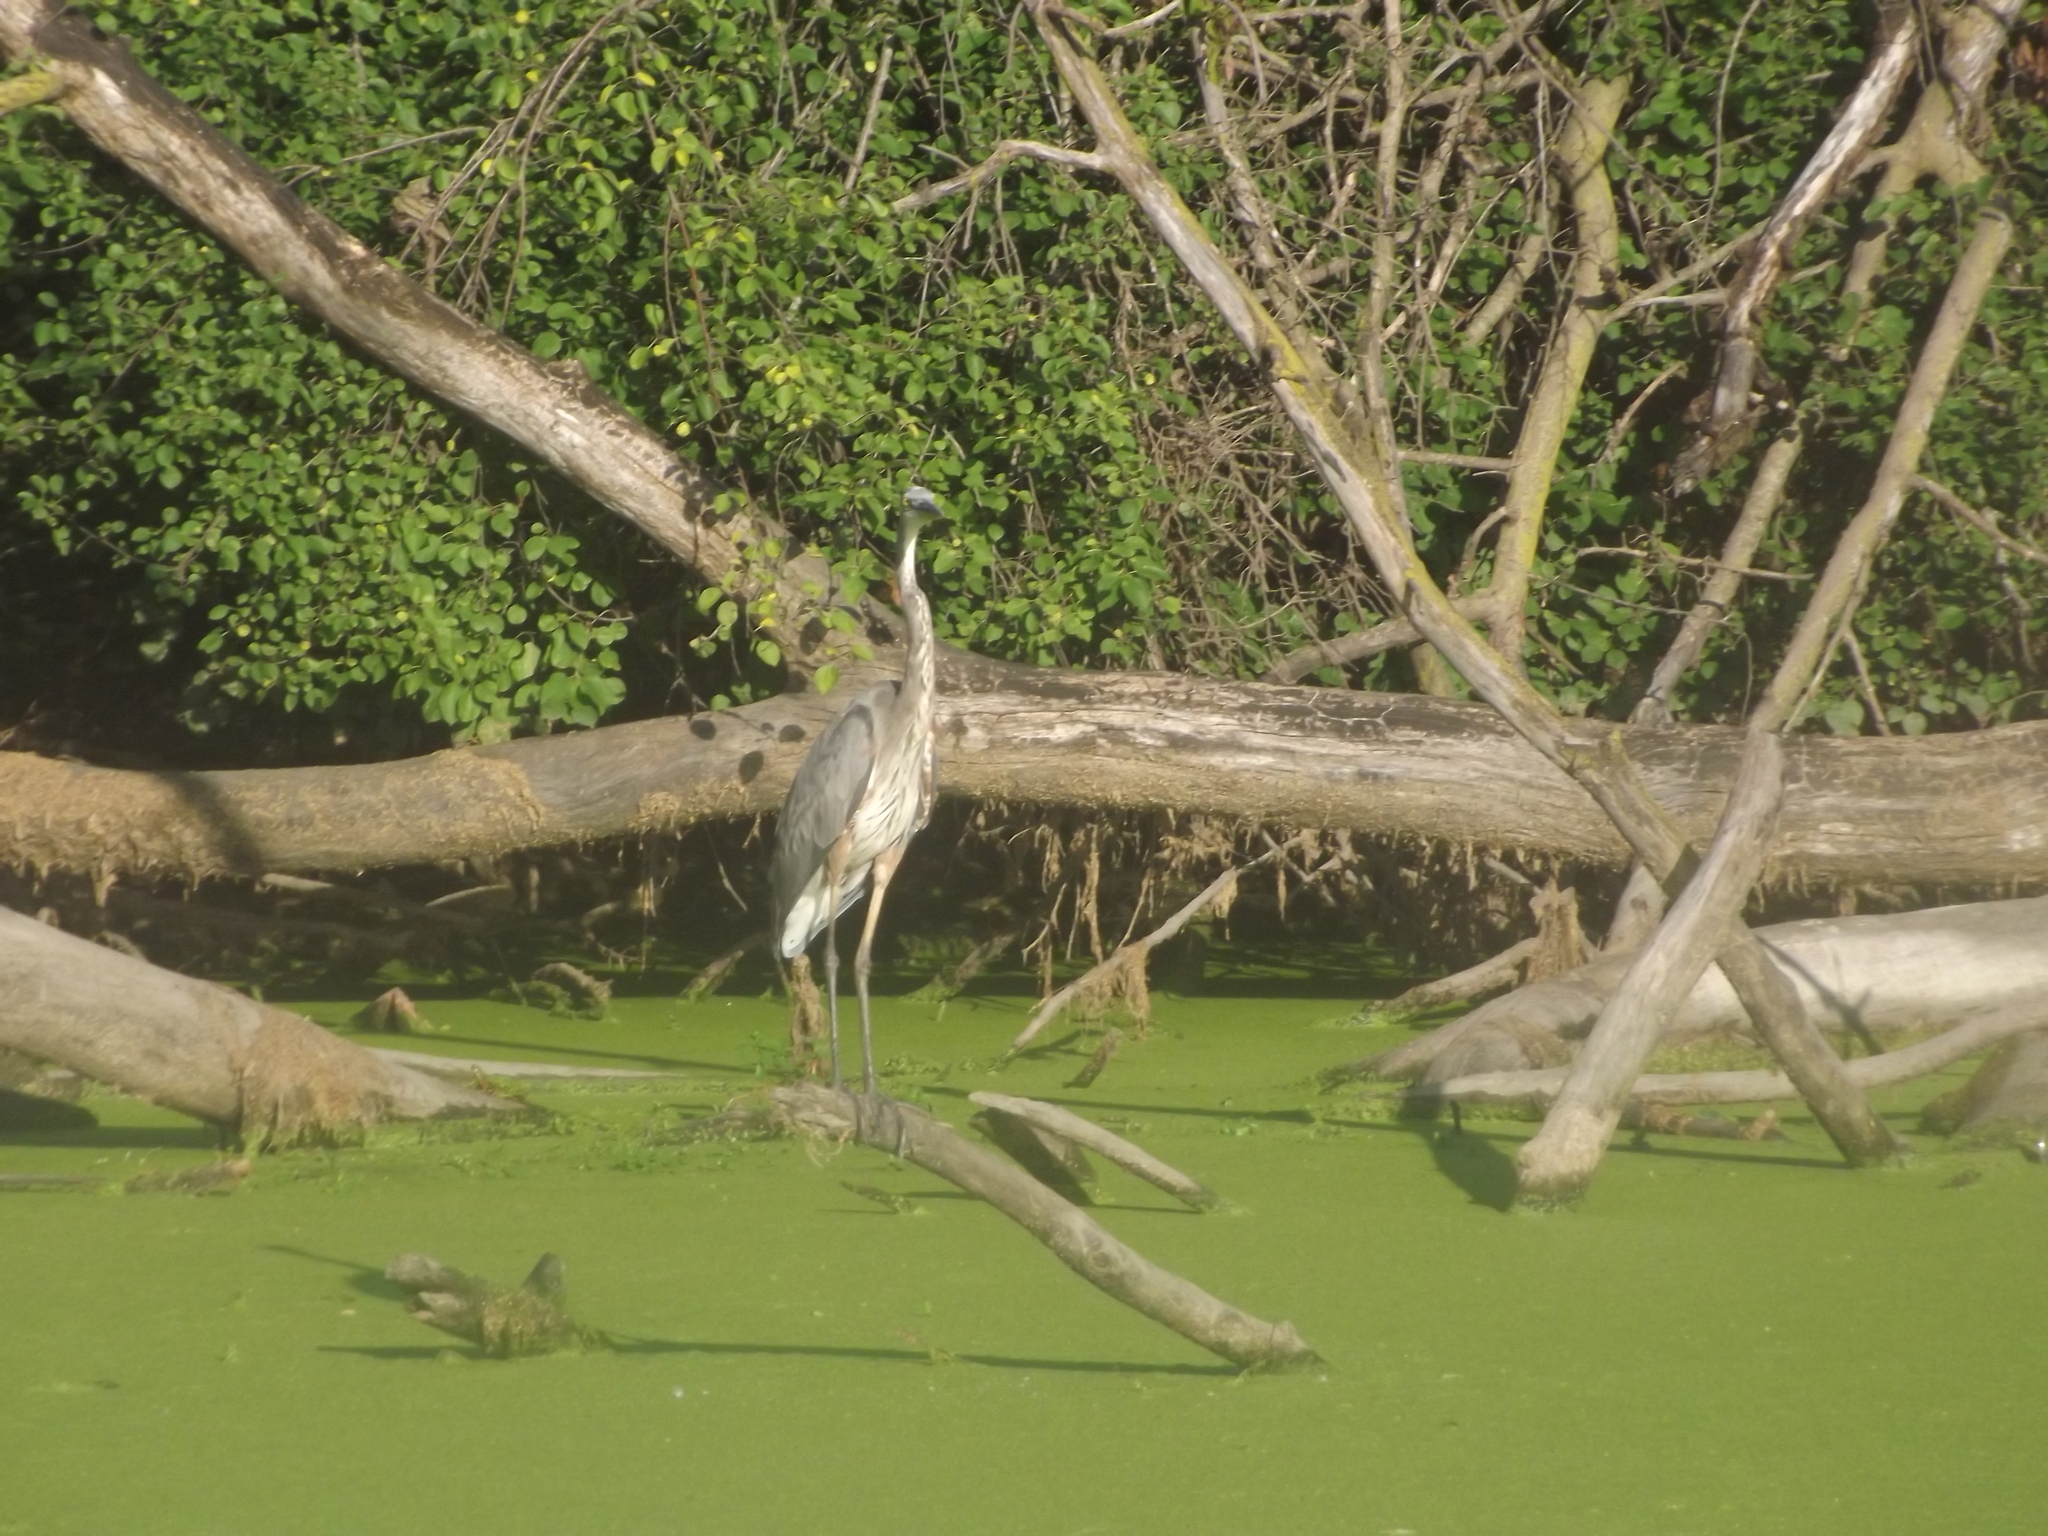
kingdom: Animalia
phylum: Chordata
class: Aves
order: Pelecaniformes
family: Ardeidae
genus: Ardea
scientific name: Ardea herodias
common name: Great blue heron
